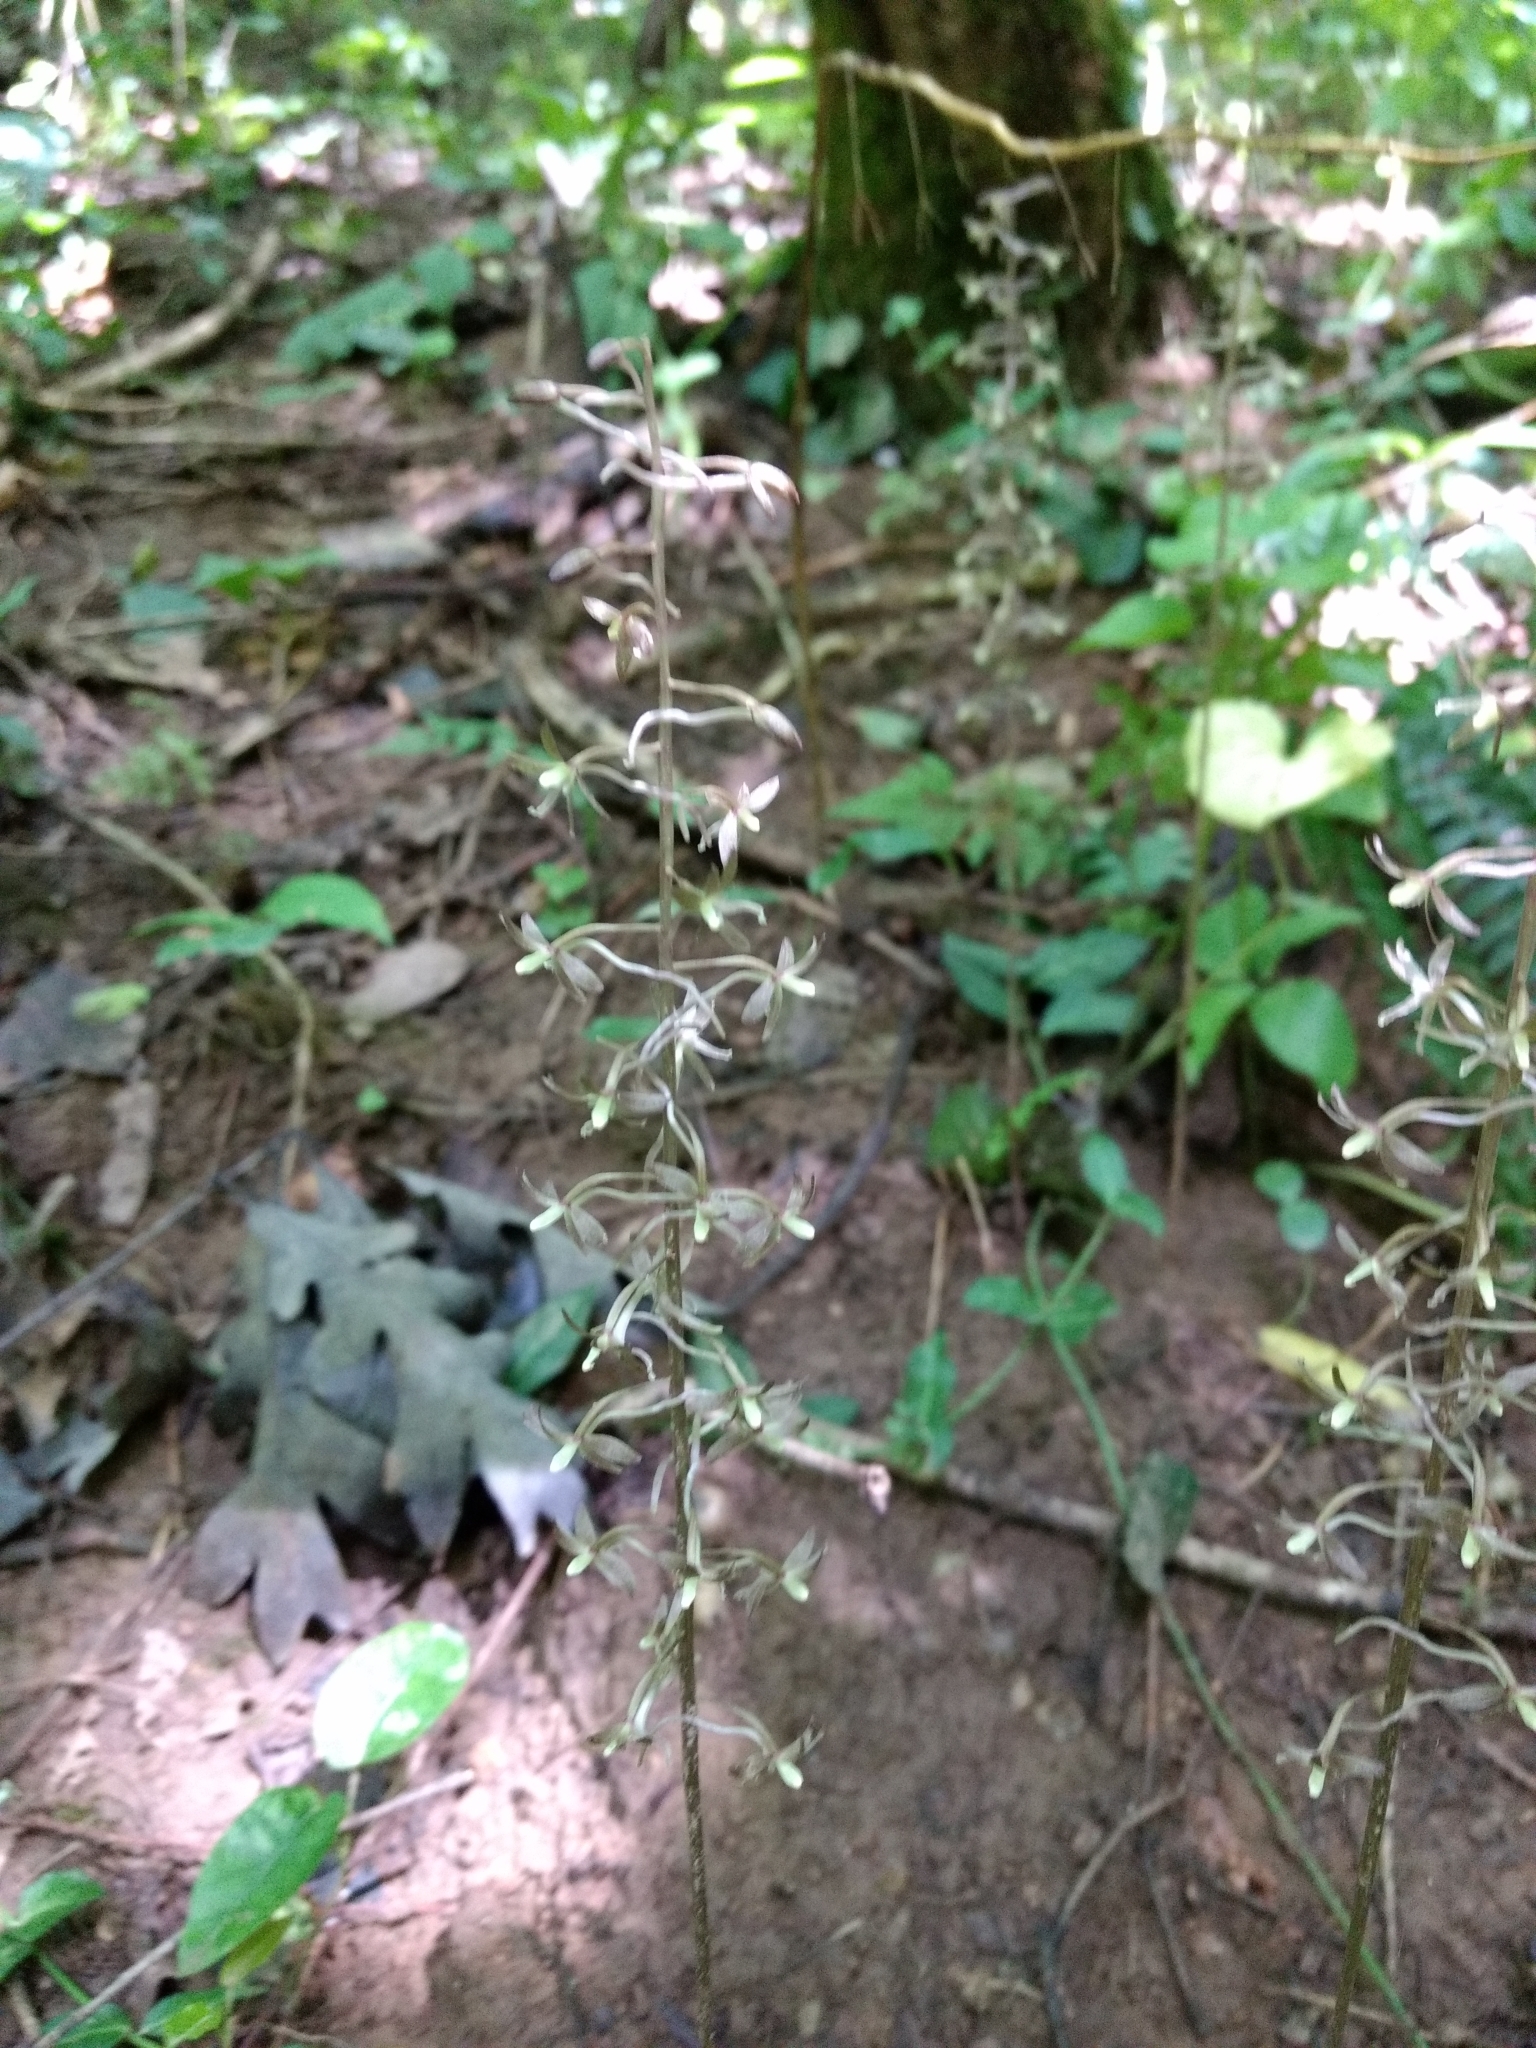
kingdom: Plantae
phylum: Tracheophyta
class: Liliopsida
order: Asparagales
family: Orchidaceae
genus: Tipularia
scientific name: Tipularia discolor
